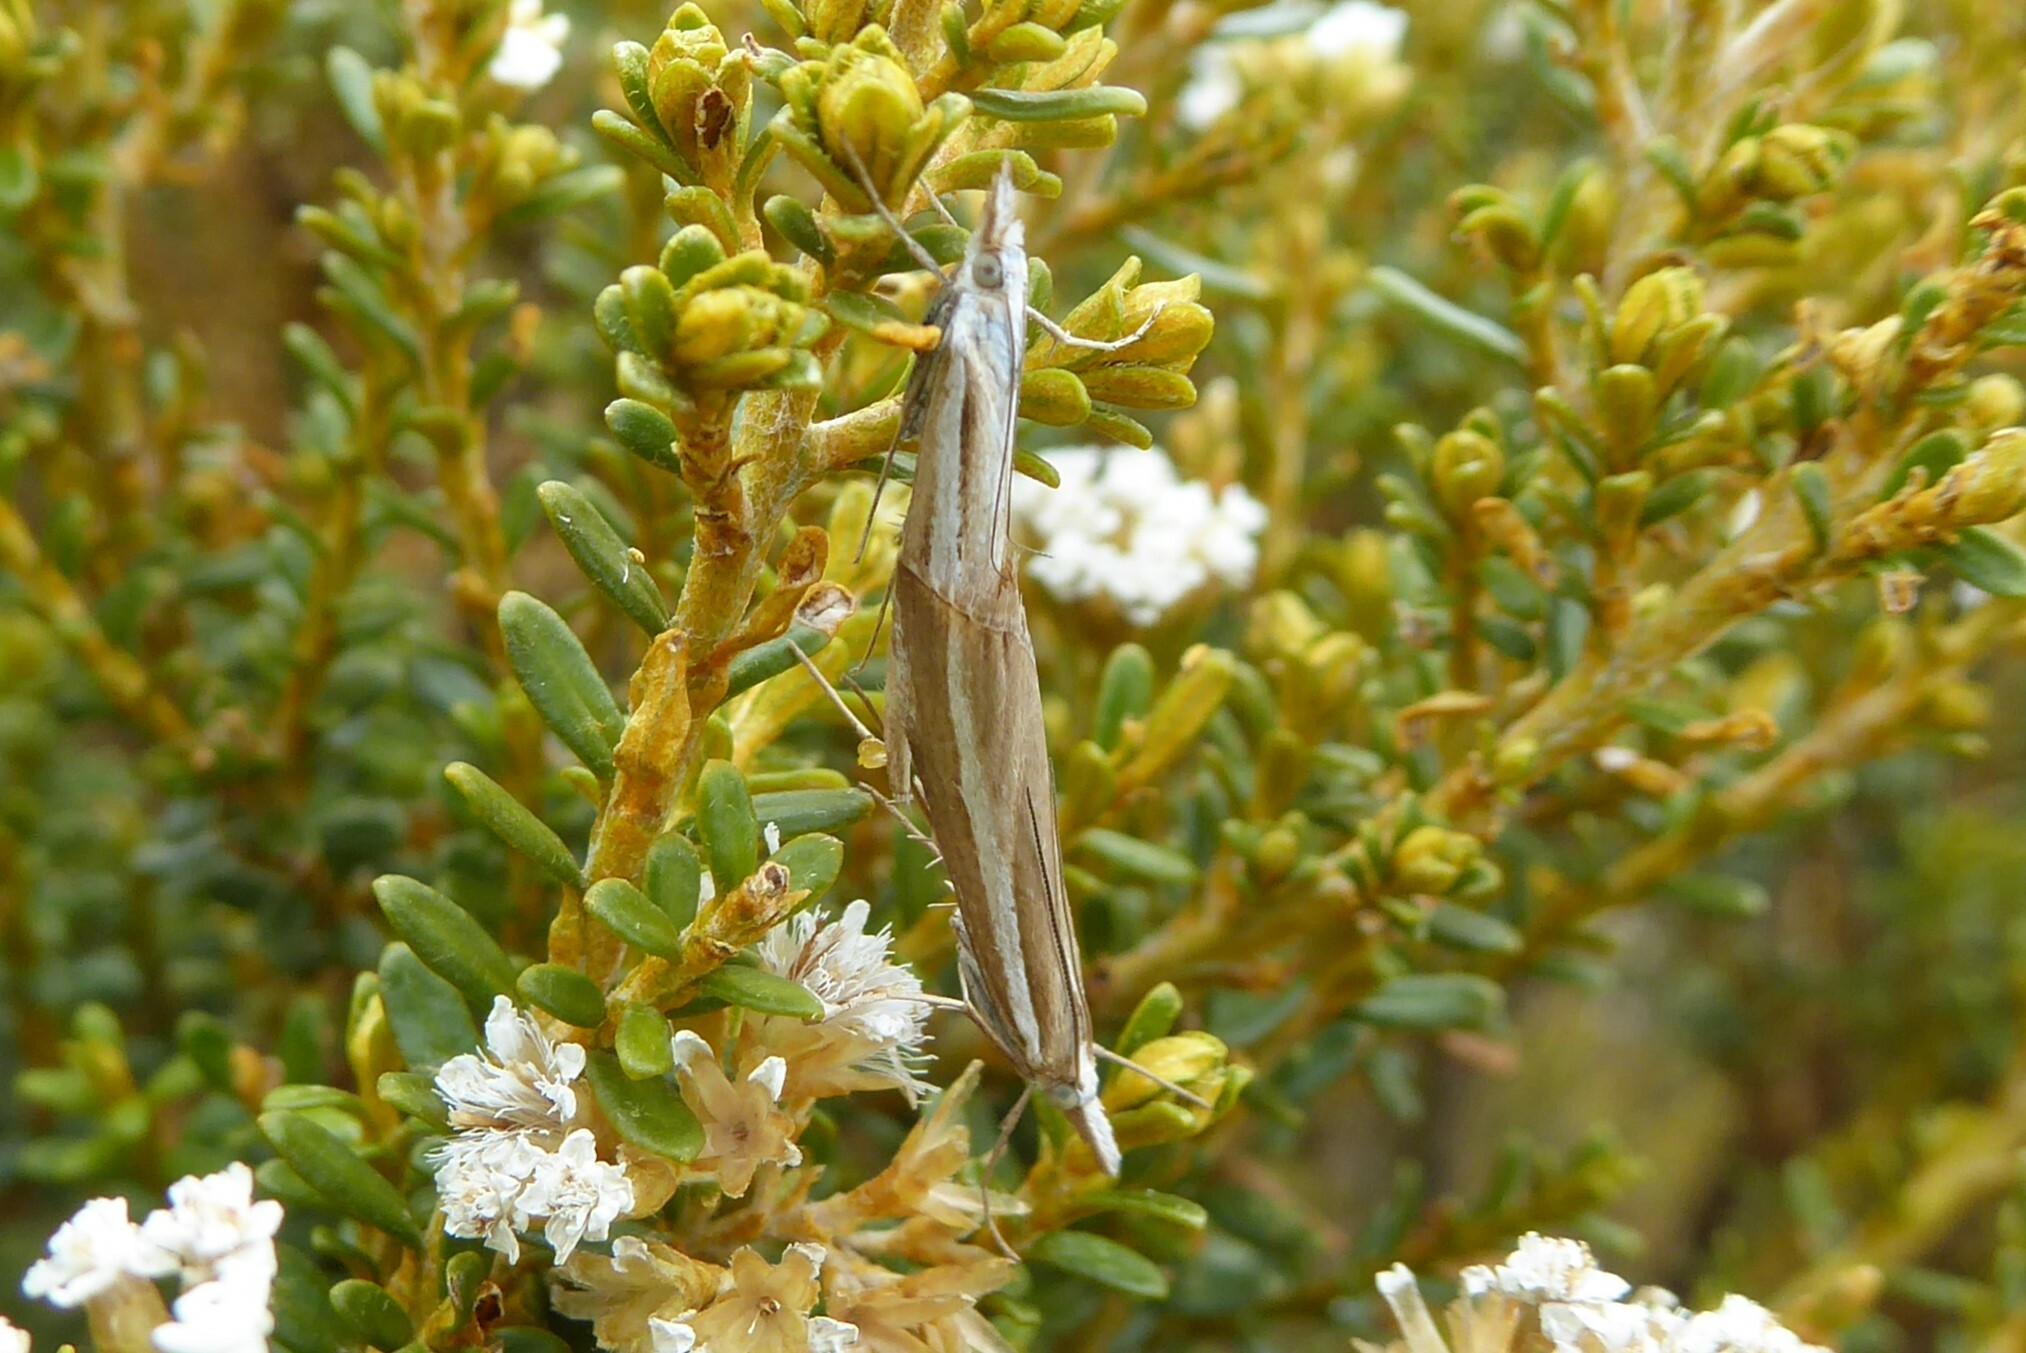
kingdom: Animalia
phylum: Arthropoda
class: Insecta
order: Lepidoptera
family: Crambidae
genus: Orocrambus
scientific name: Orocrambus vittellus
